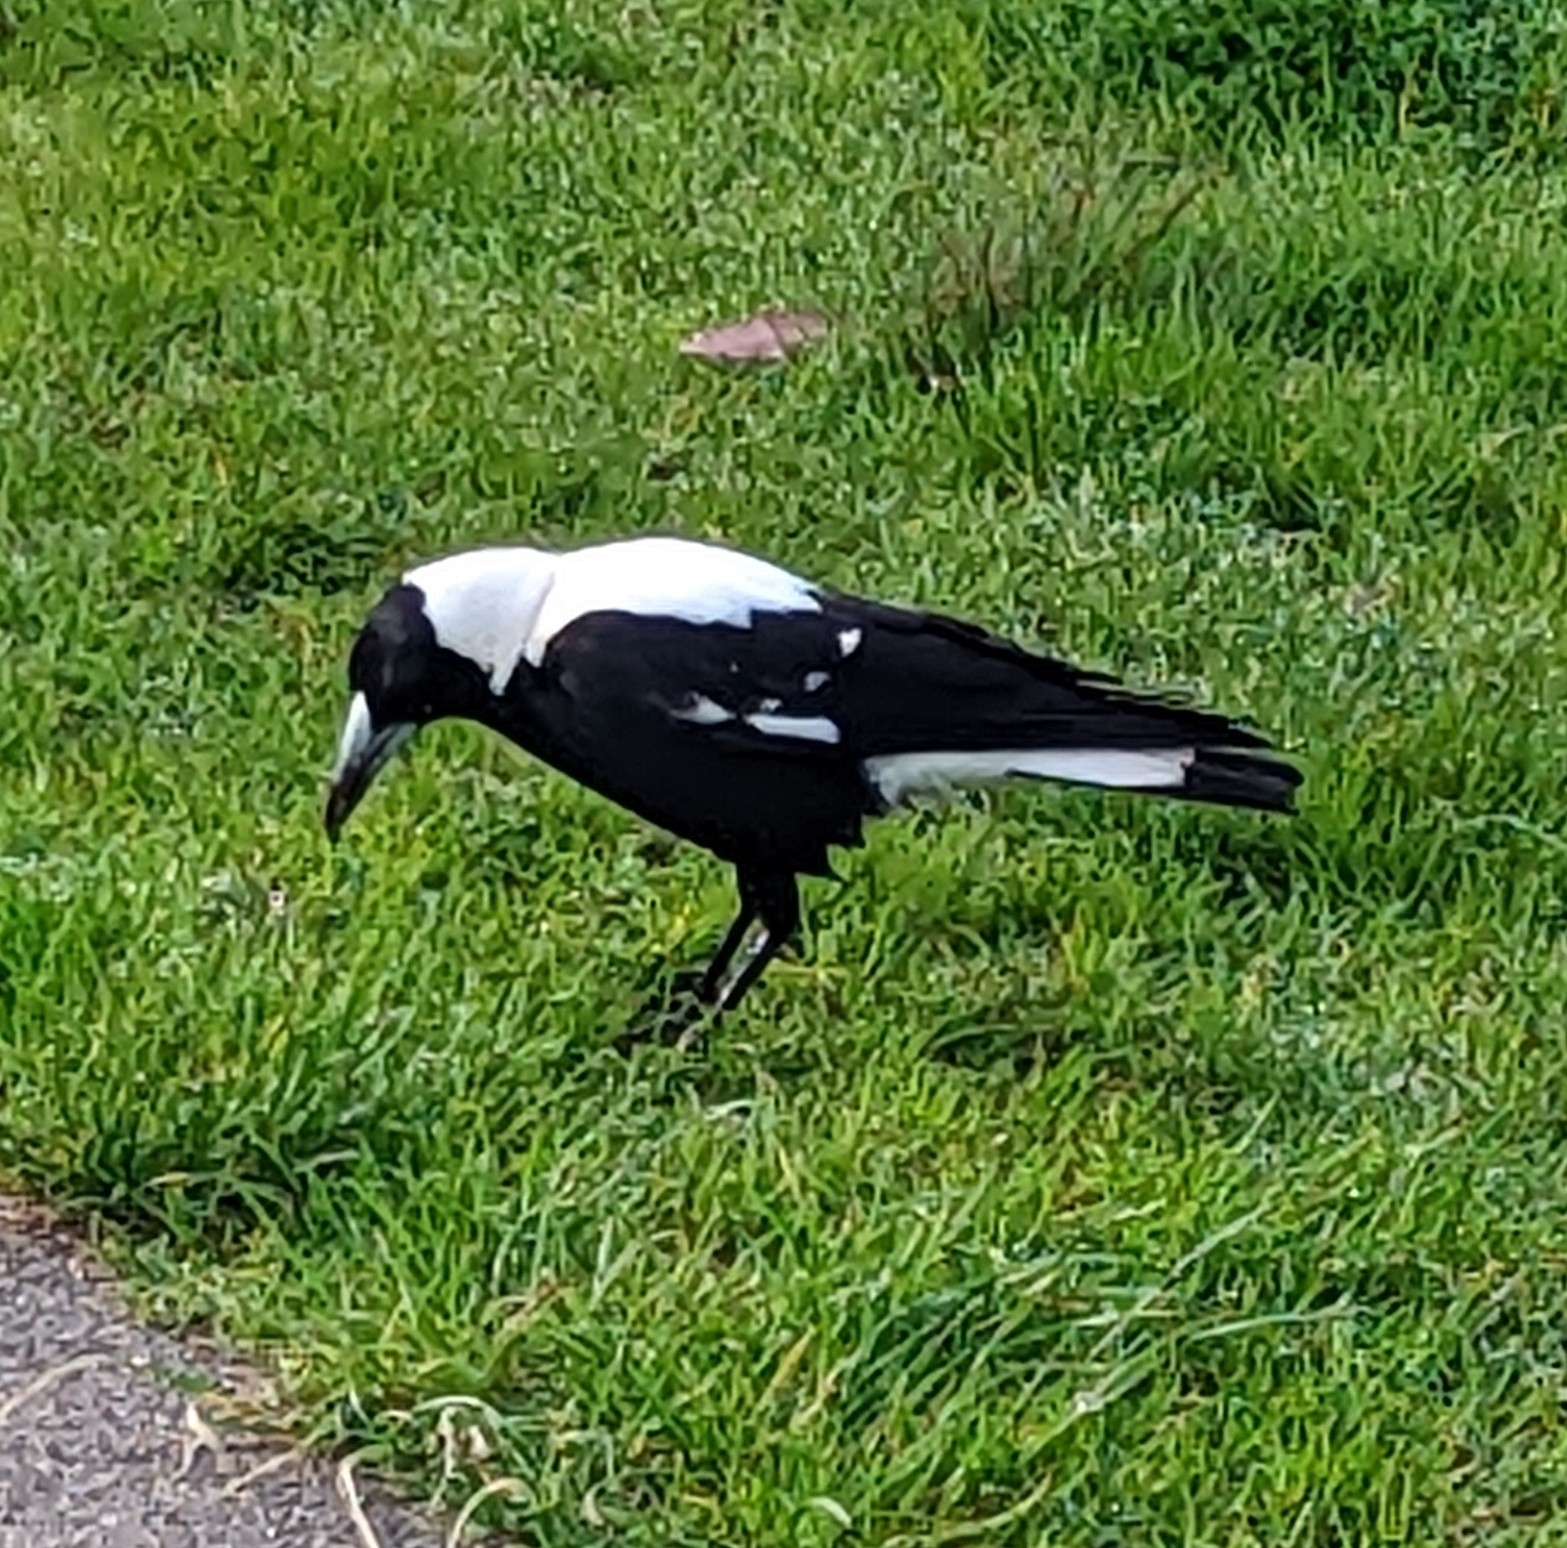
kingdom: Animalia
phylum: Chordata
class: Aves
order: Passeriformes
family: Cracticidae
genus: Gymnorhina
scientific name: Gymnorhina tibicen
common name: Australian magpie
